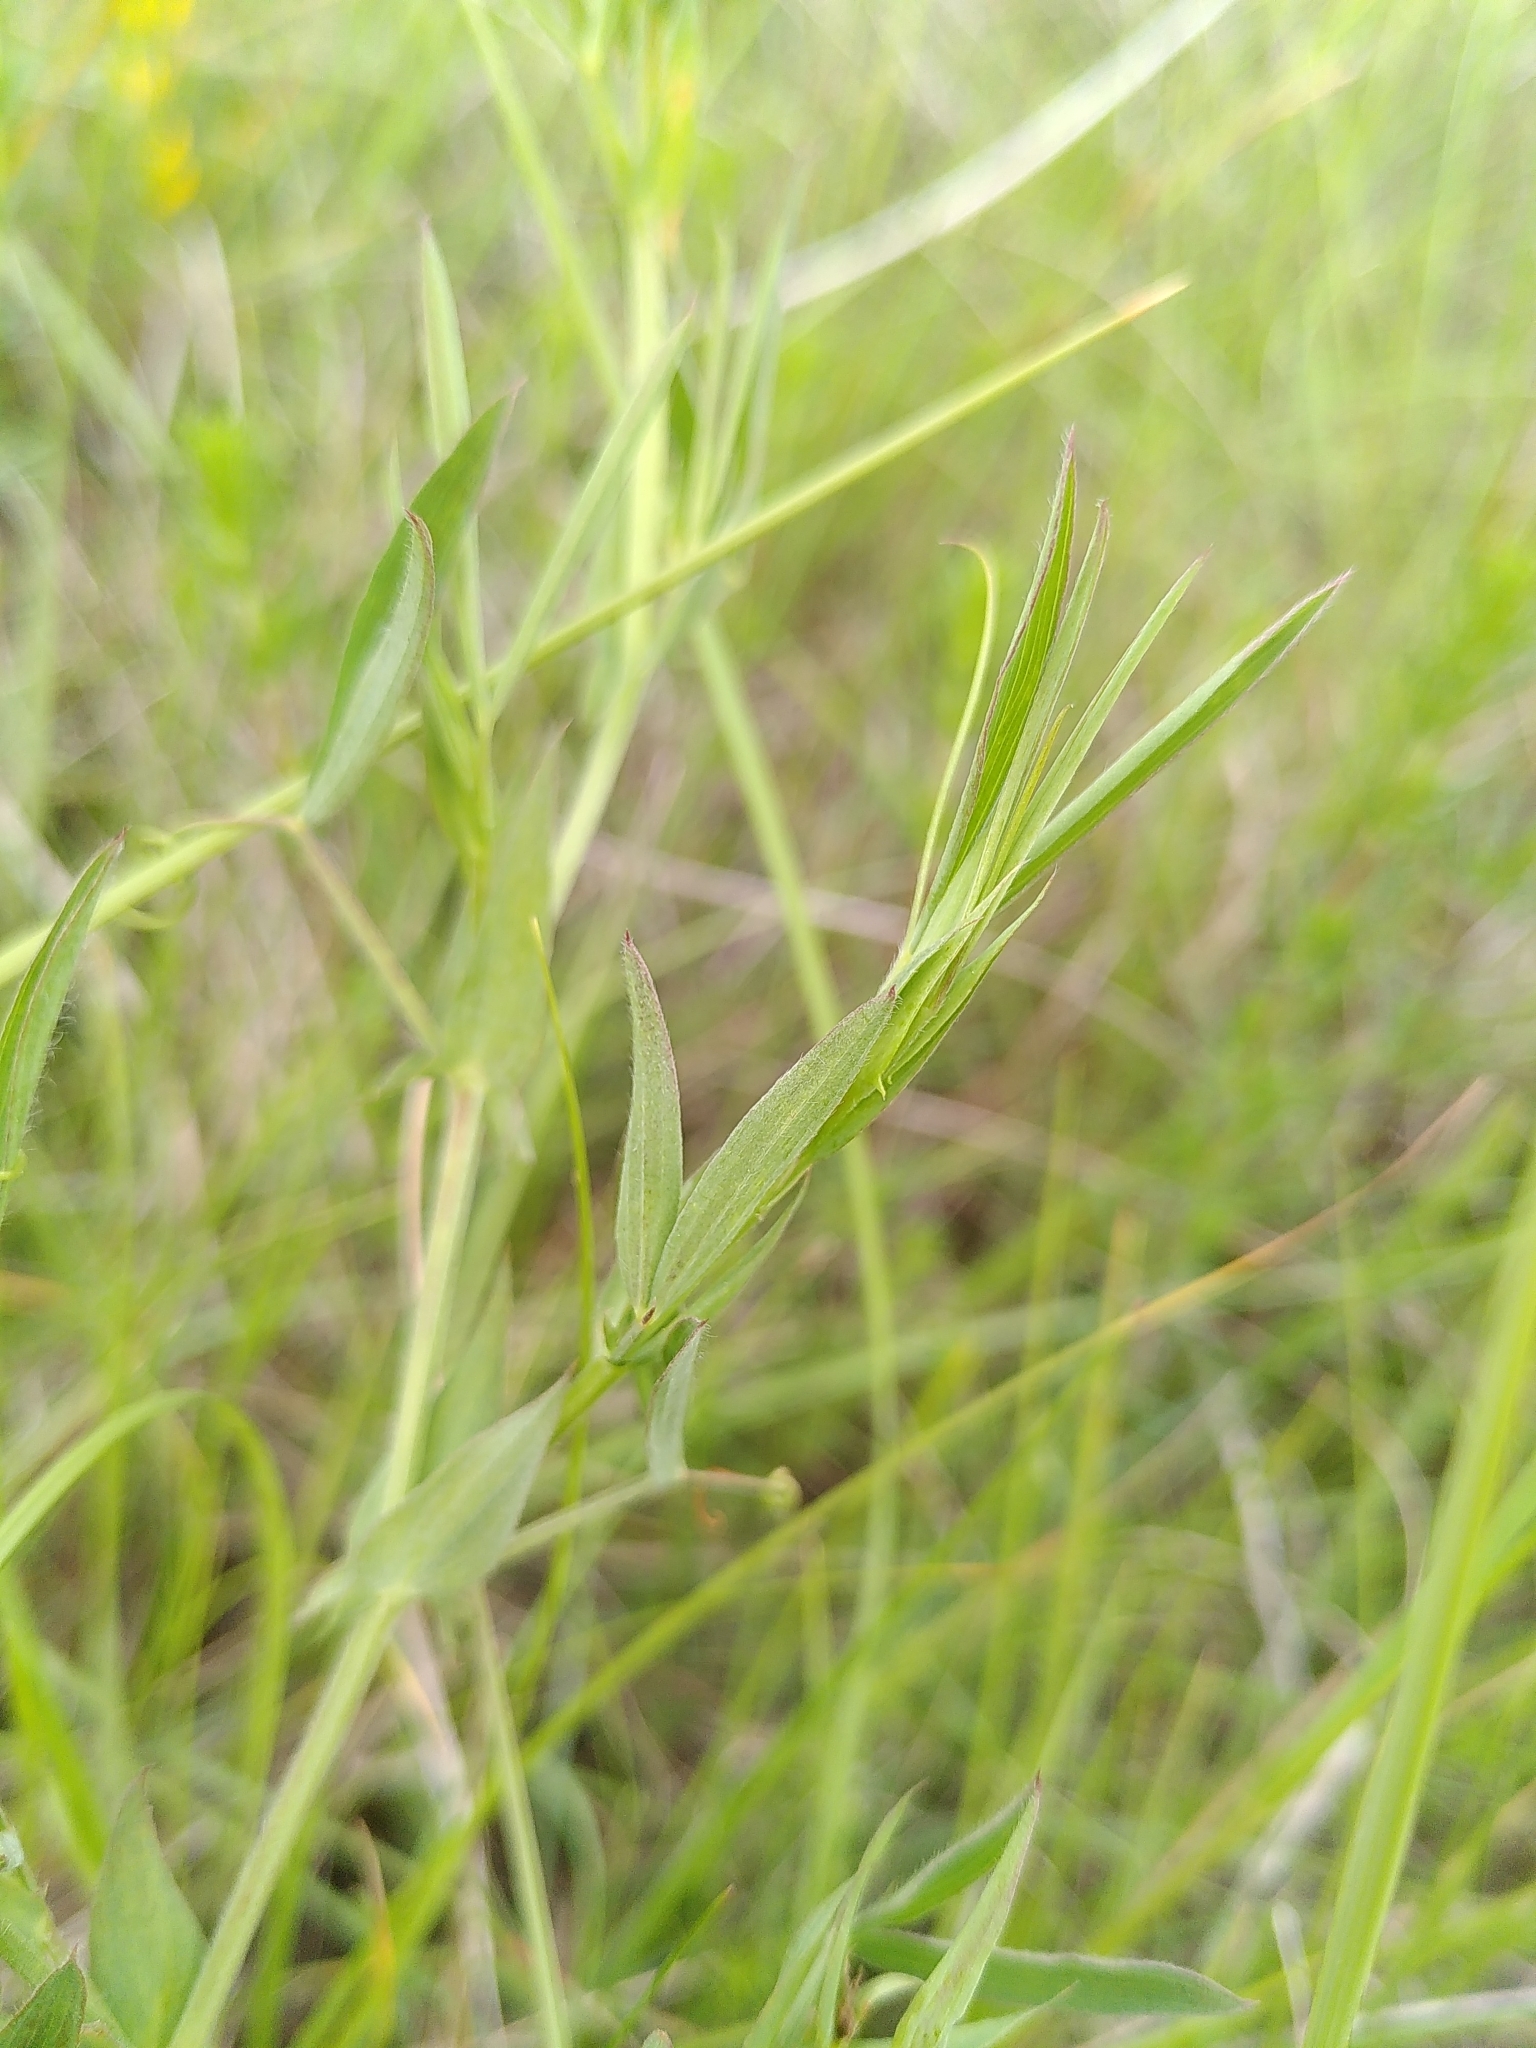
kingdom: Plantae
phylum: Tracheophyta
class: Magnoliopsida
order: Fabales
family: Fabaceae
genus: Lathyrus
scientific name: Lathyrus pratensis
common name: Meadow vetchling
